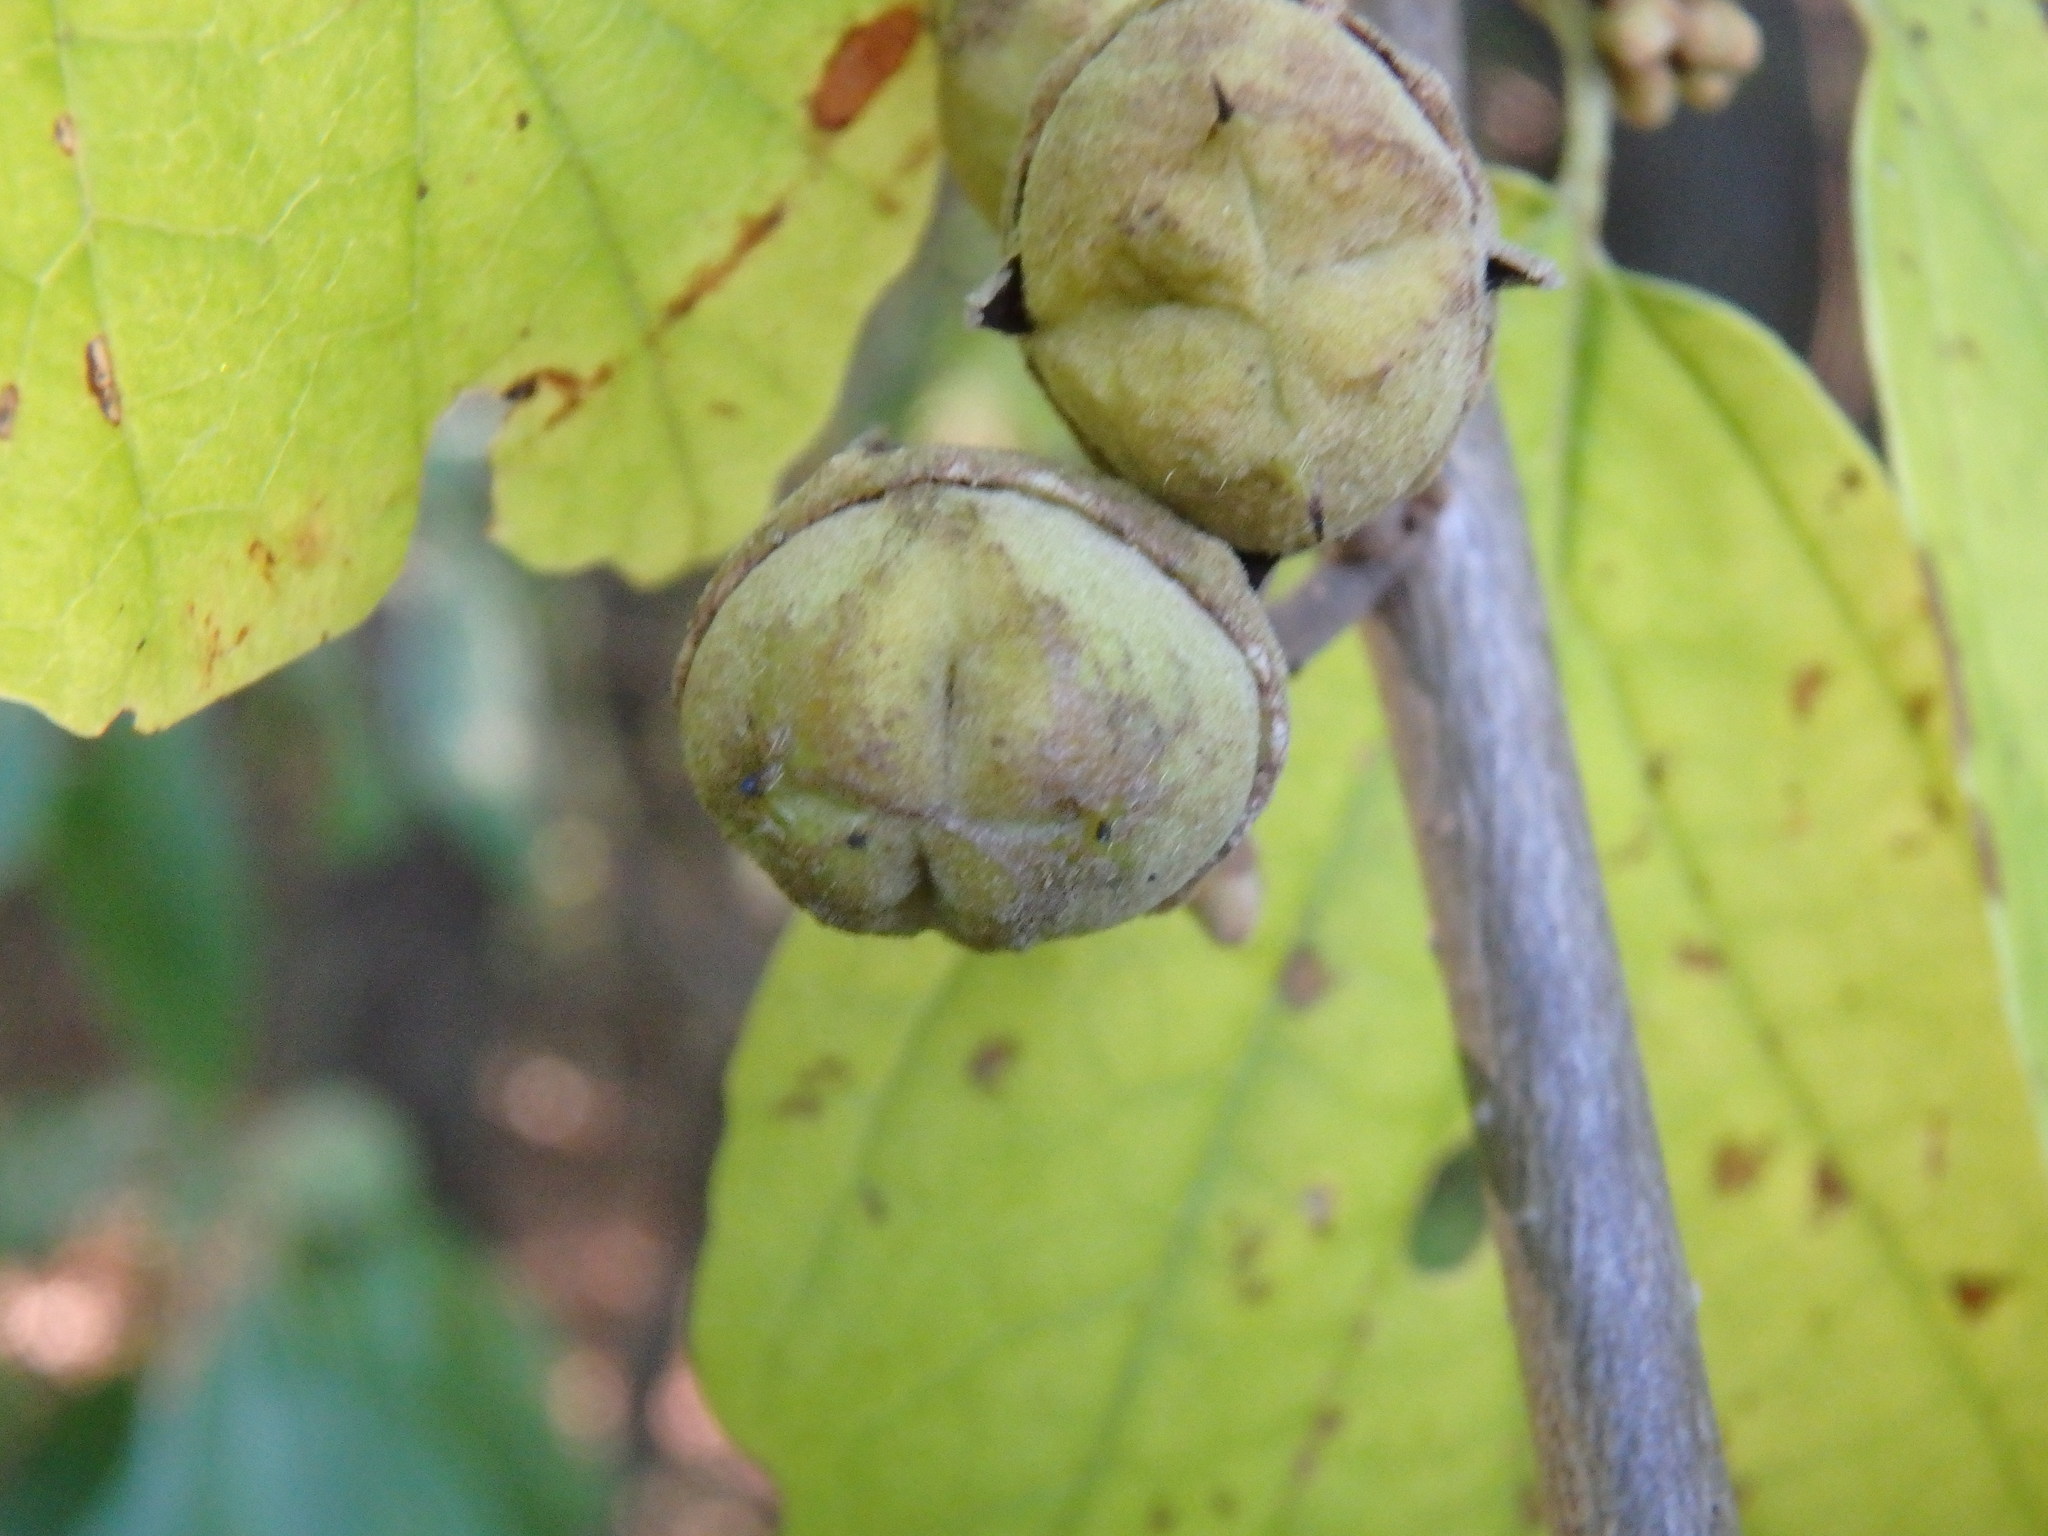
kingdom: Plantae
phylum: Tracheophyta
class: Magnoliopsida
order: Saxifragales
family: Hamamelidaceae
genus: Hamamelis
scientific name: Hamamelis virginiana
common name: Witch-hazel
